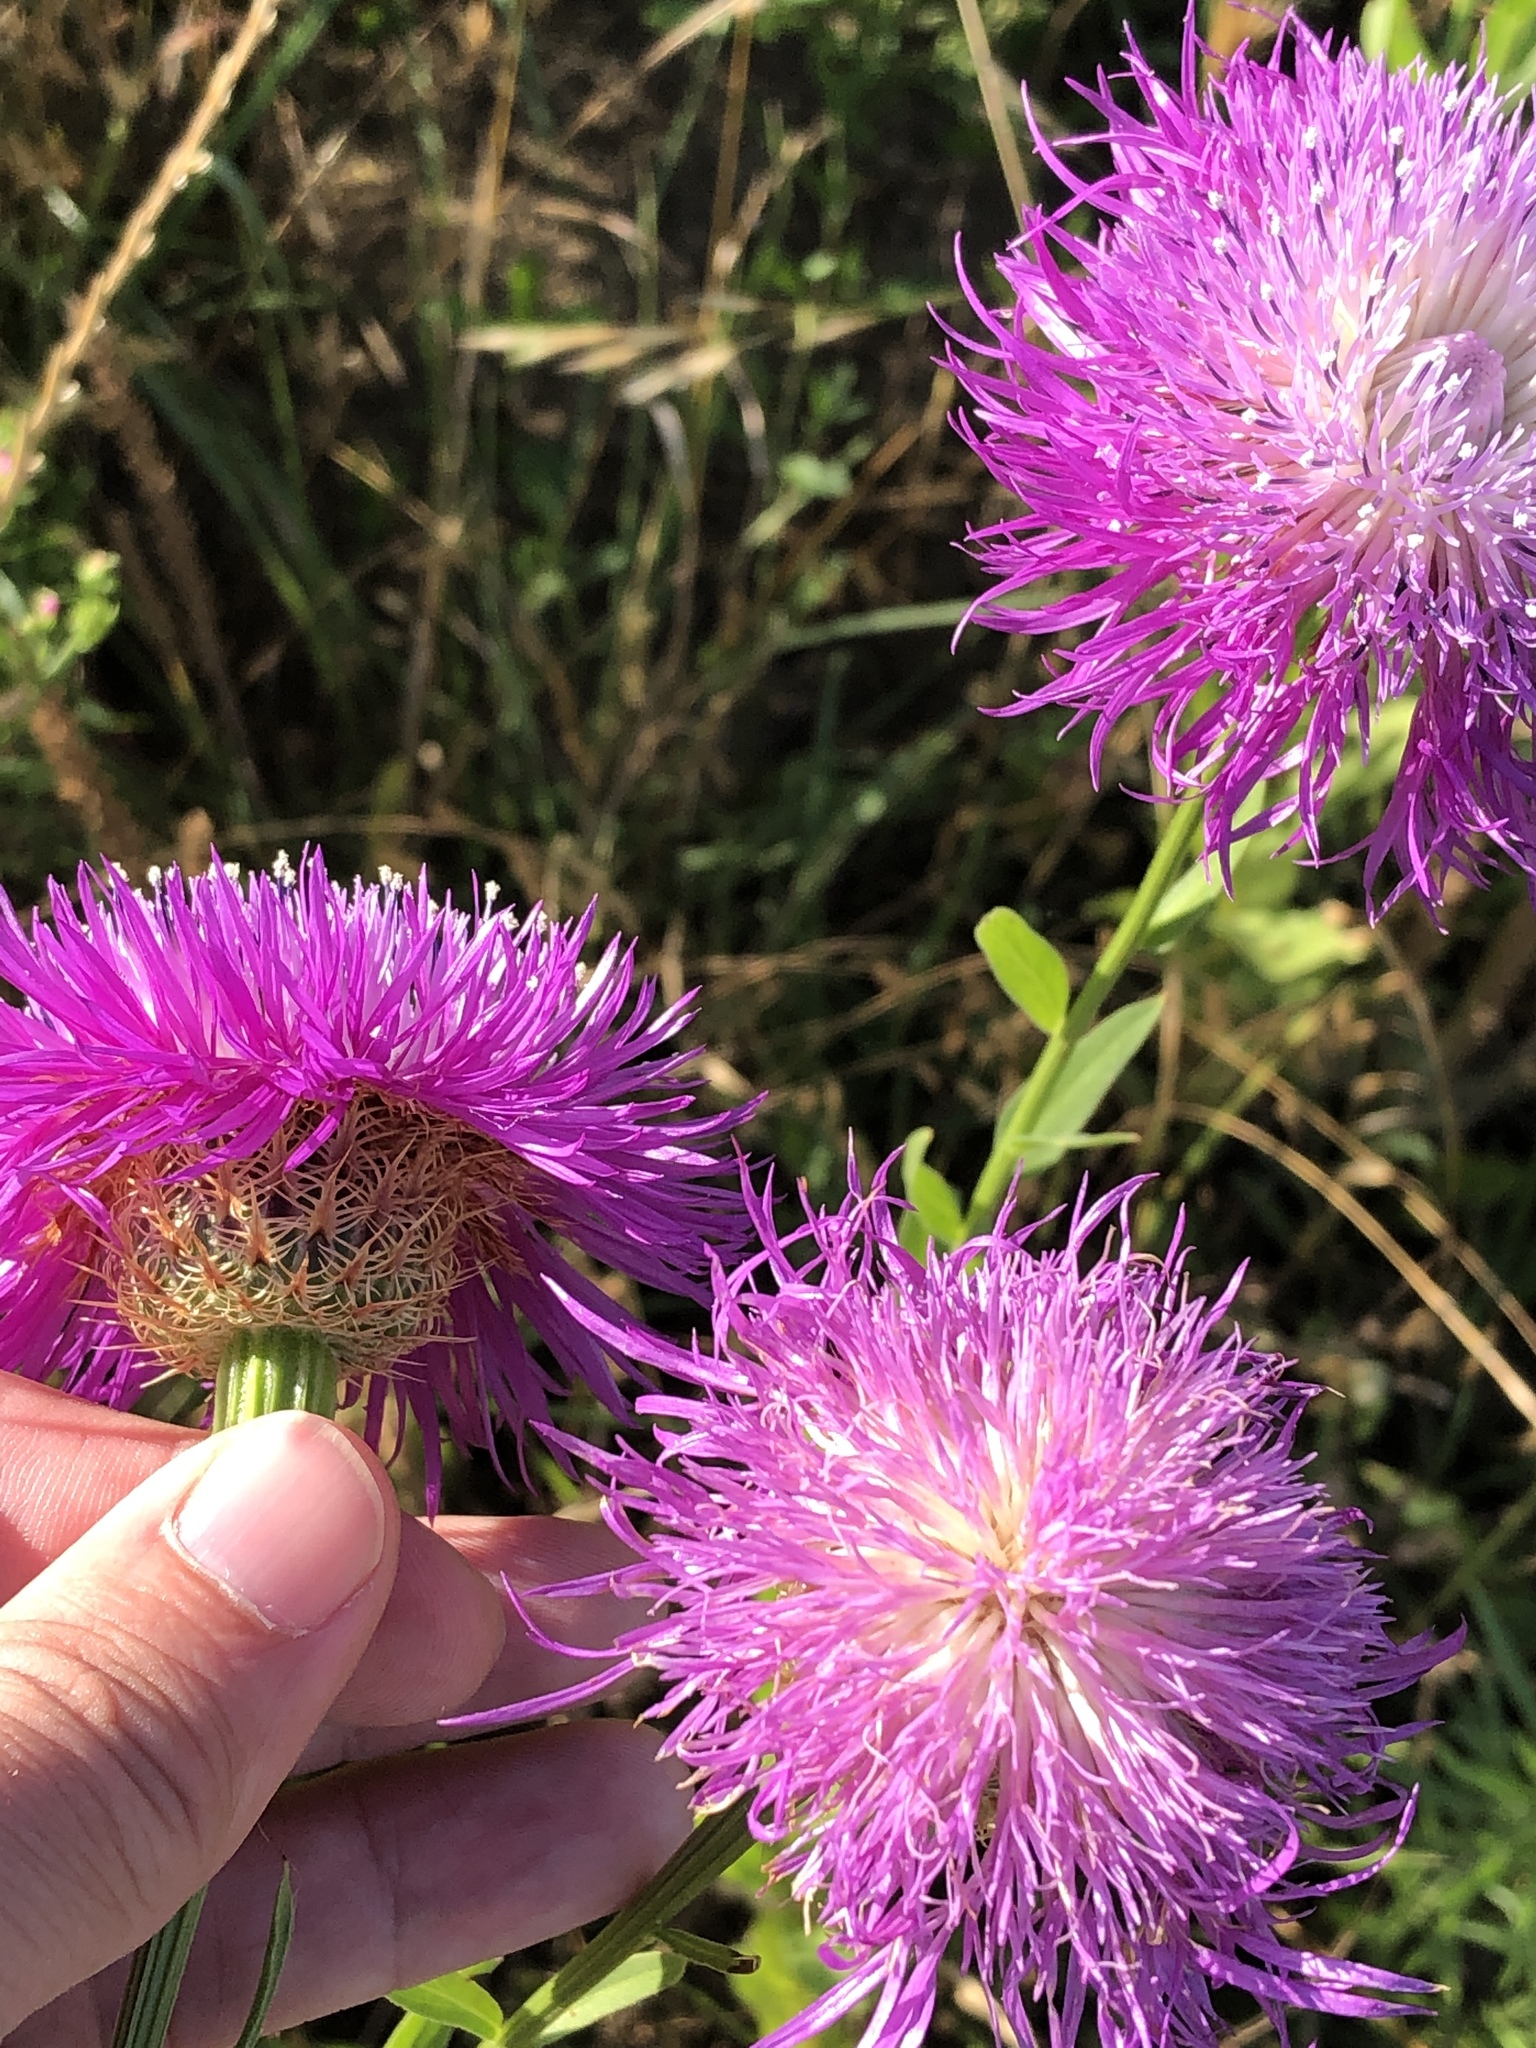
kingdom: Plantae
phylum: Tracheophyta
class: Magnoliopsida
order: Asterales
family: Asteraceae
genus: Plectocephalus
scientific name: Plectocephalus americanus
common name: American basket-flower
